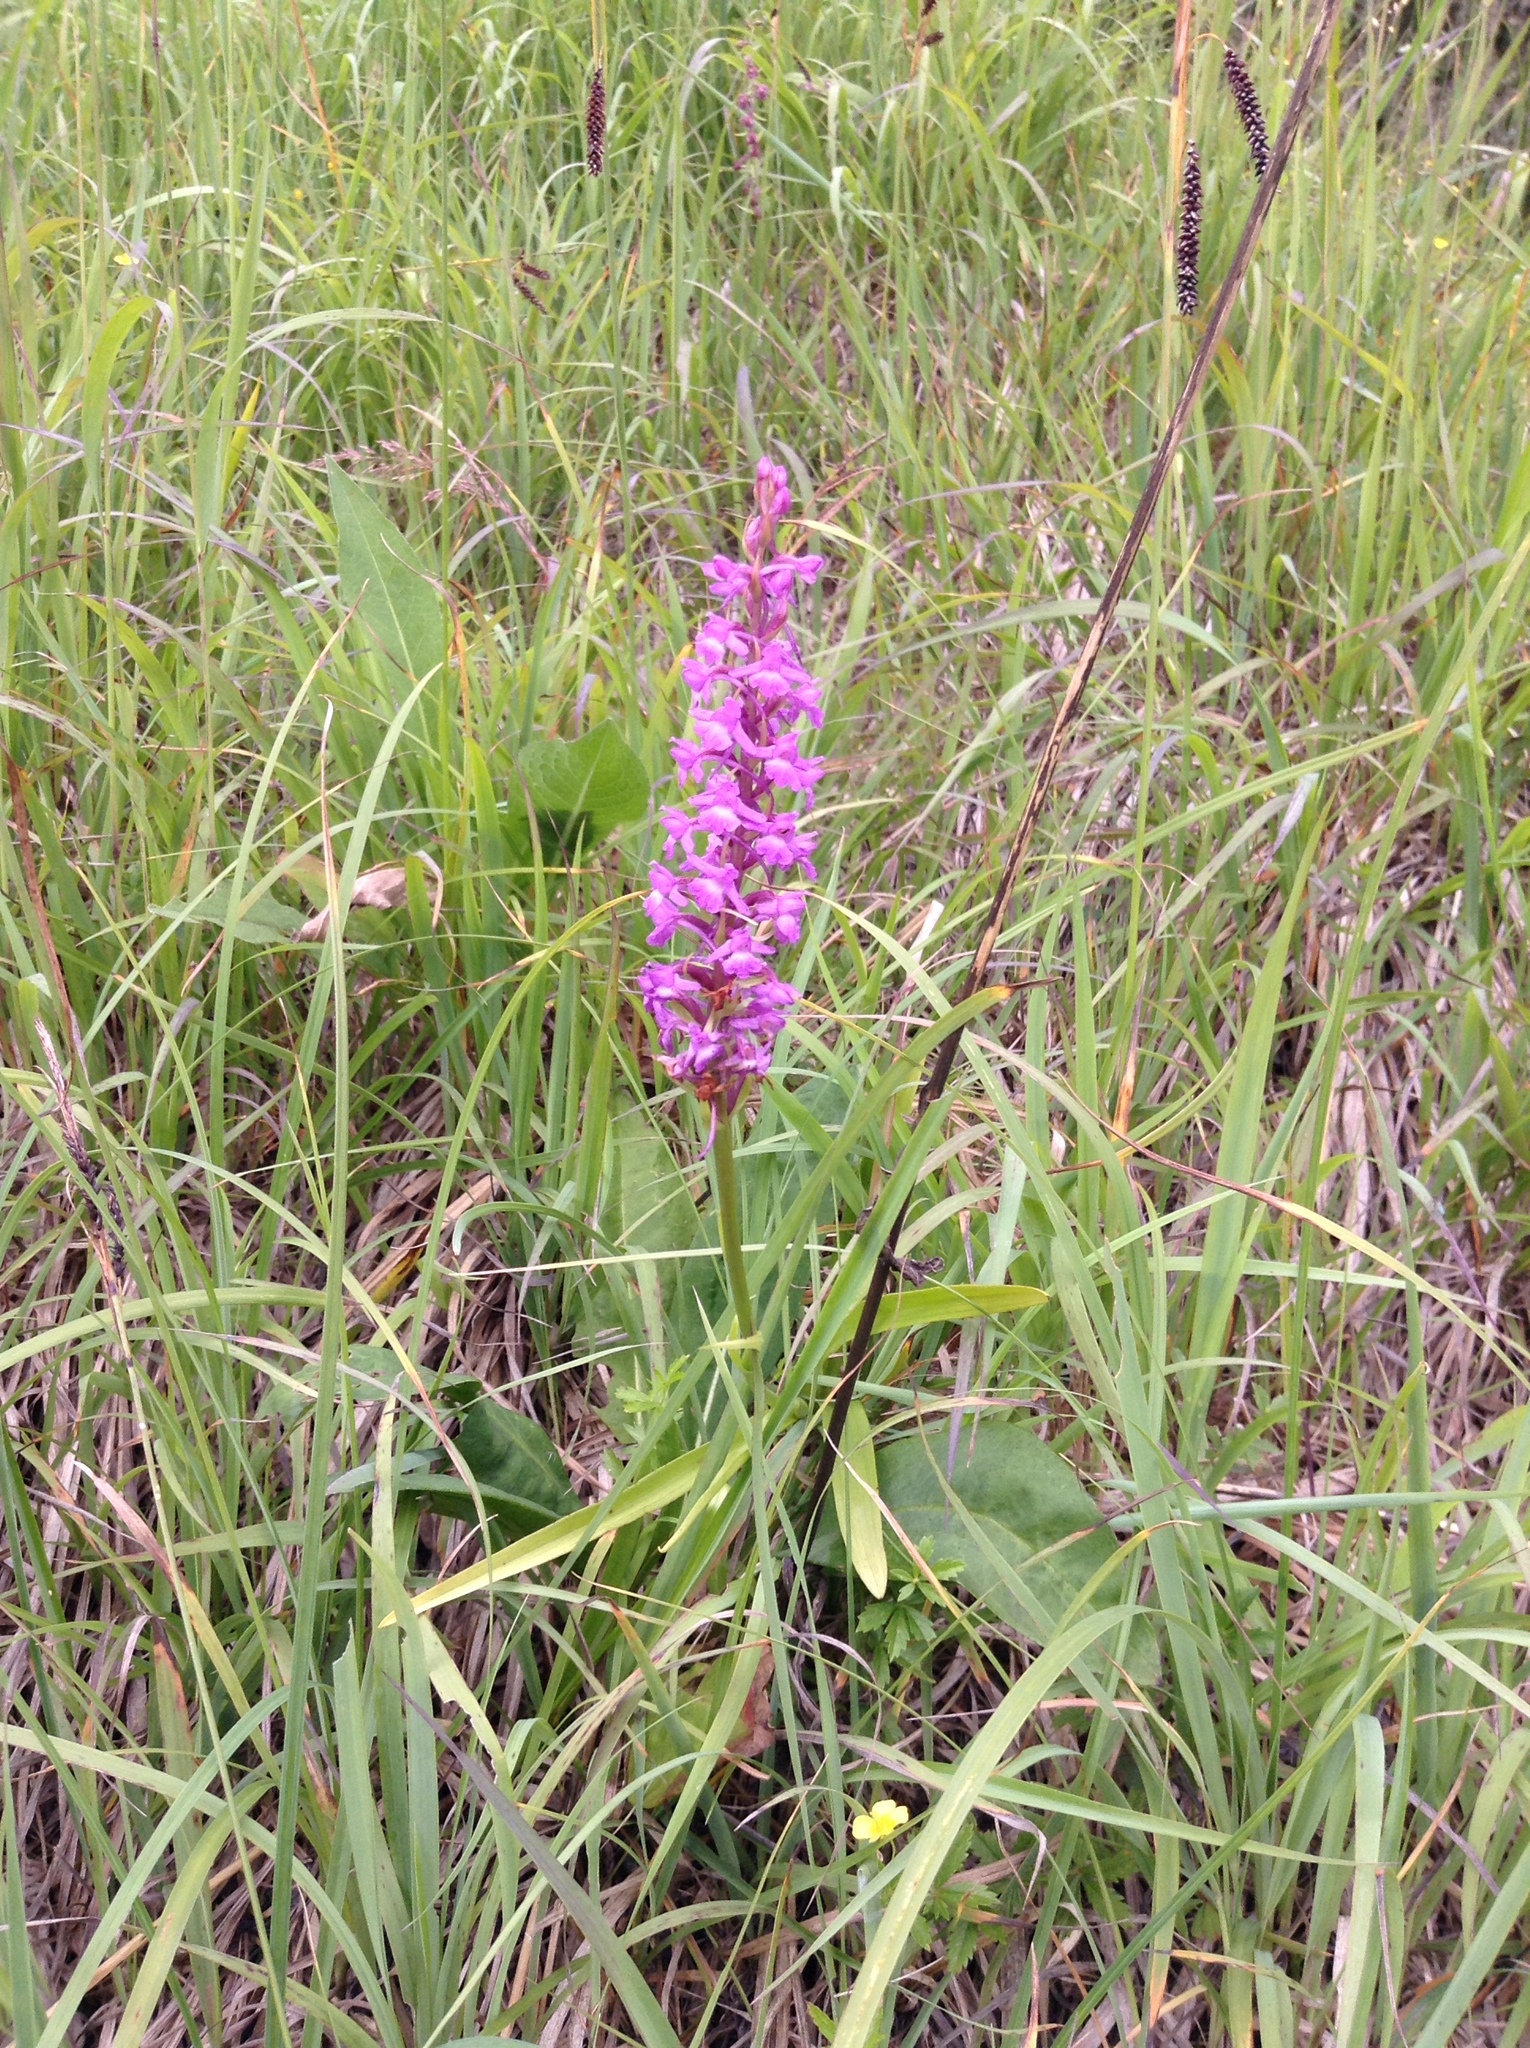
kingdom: Plantae
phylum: Tracheophyta
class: Liliopsida
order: Asparagales
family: Orchidaceae
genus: Gymnadenia
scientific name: Gymnadenia conopsea
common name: Fragrant orchid
